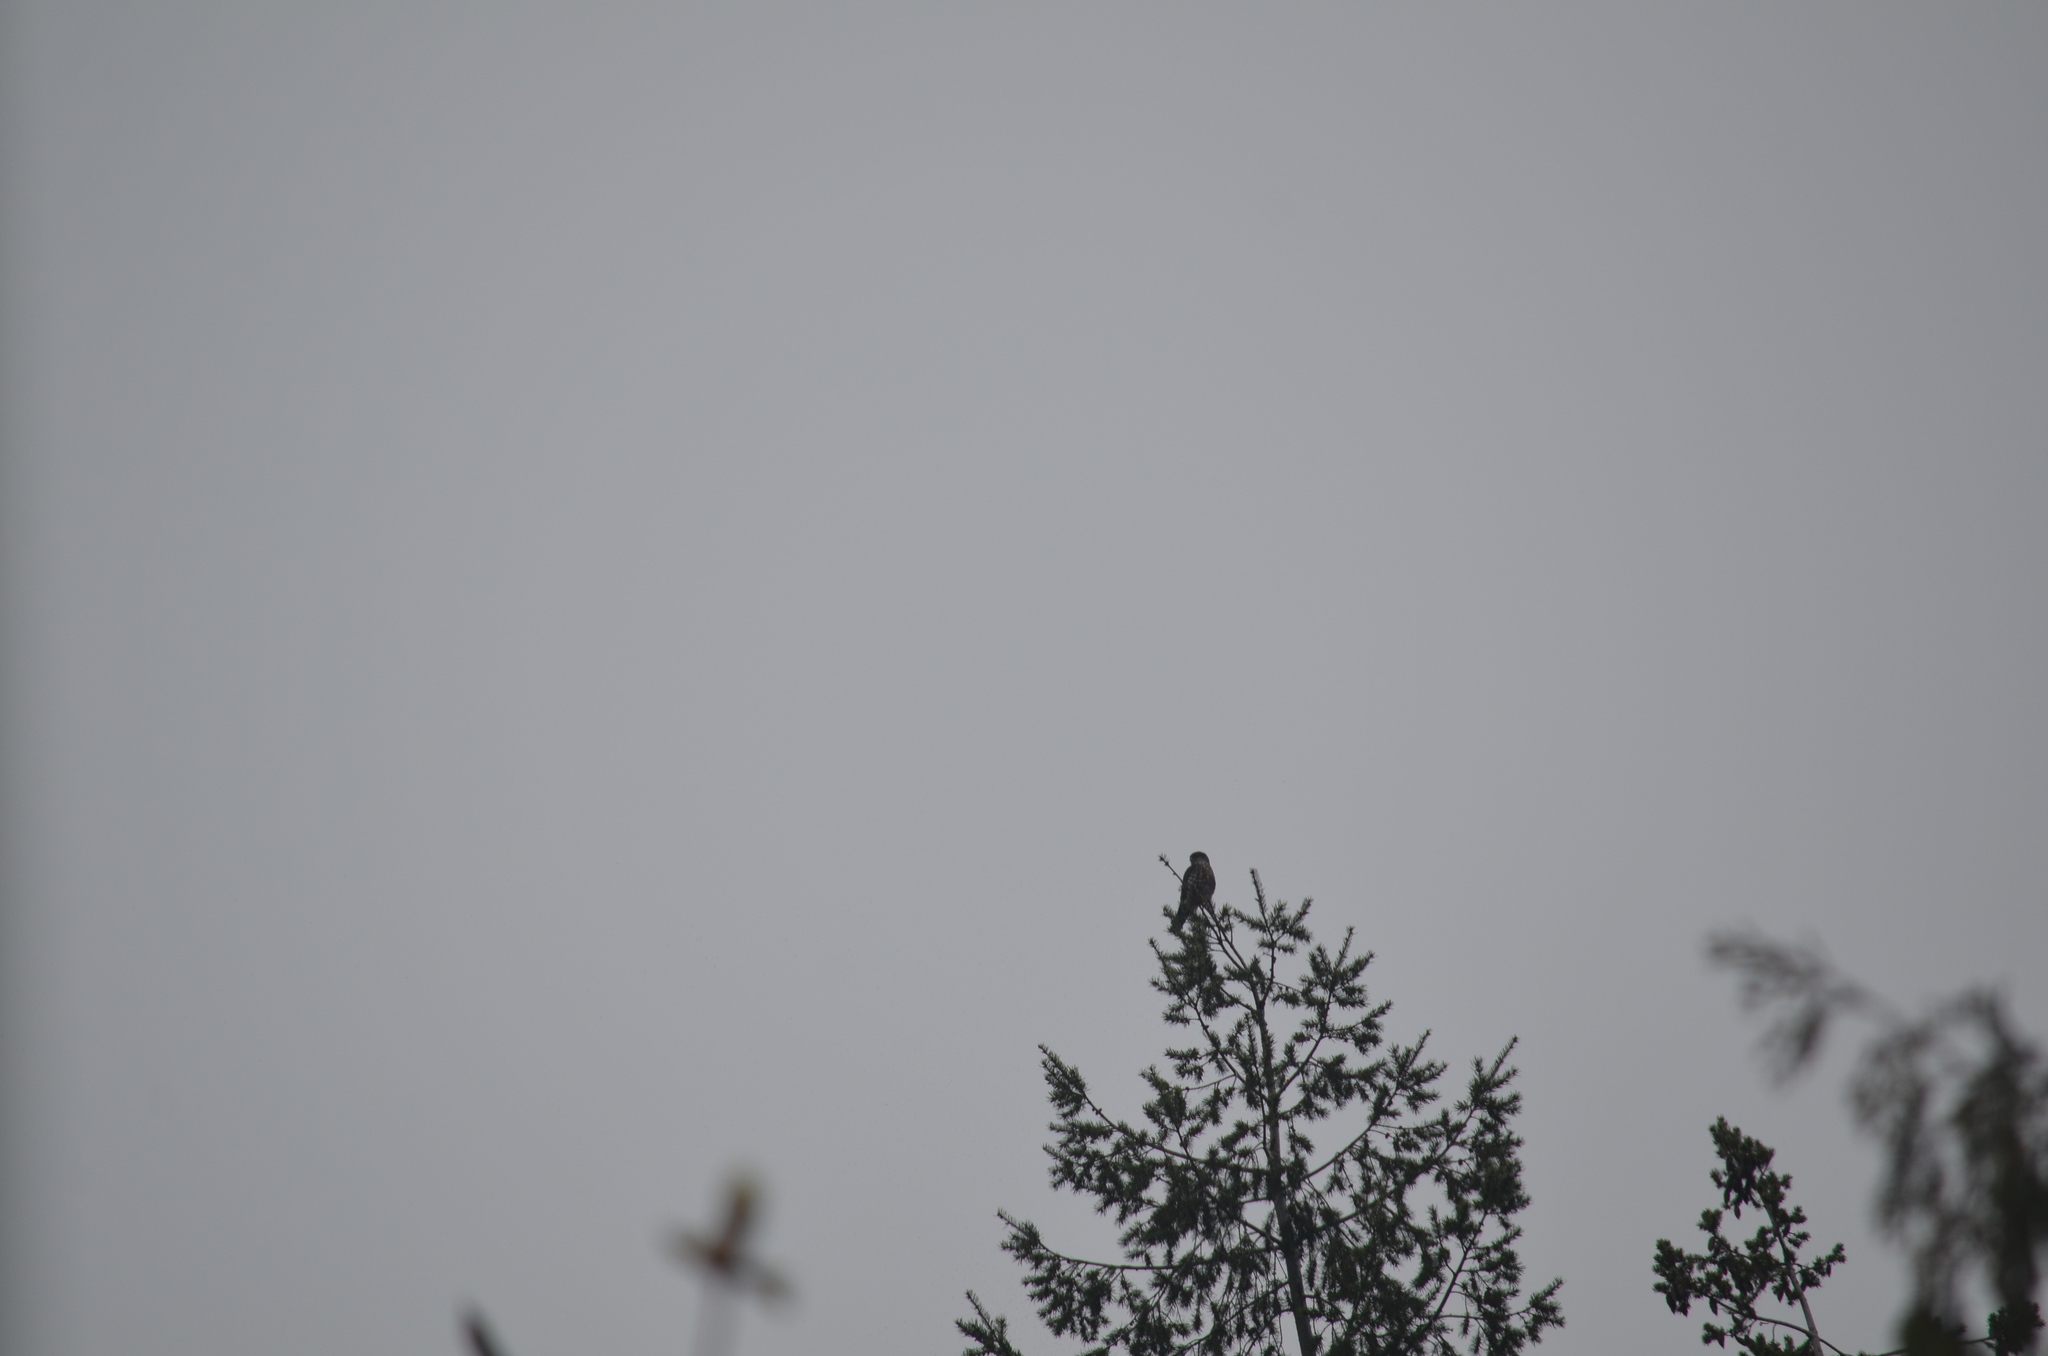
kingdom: Animalia
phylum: Chordata
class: Aves
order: Falconiformes
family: Falconidae
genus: Falco
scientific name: Falco columbarius
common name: Merlin
